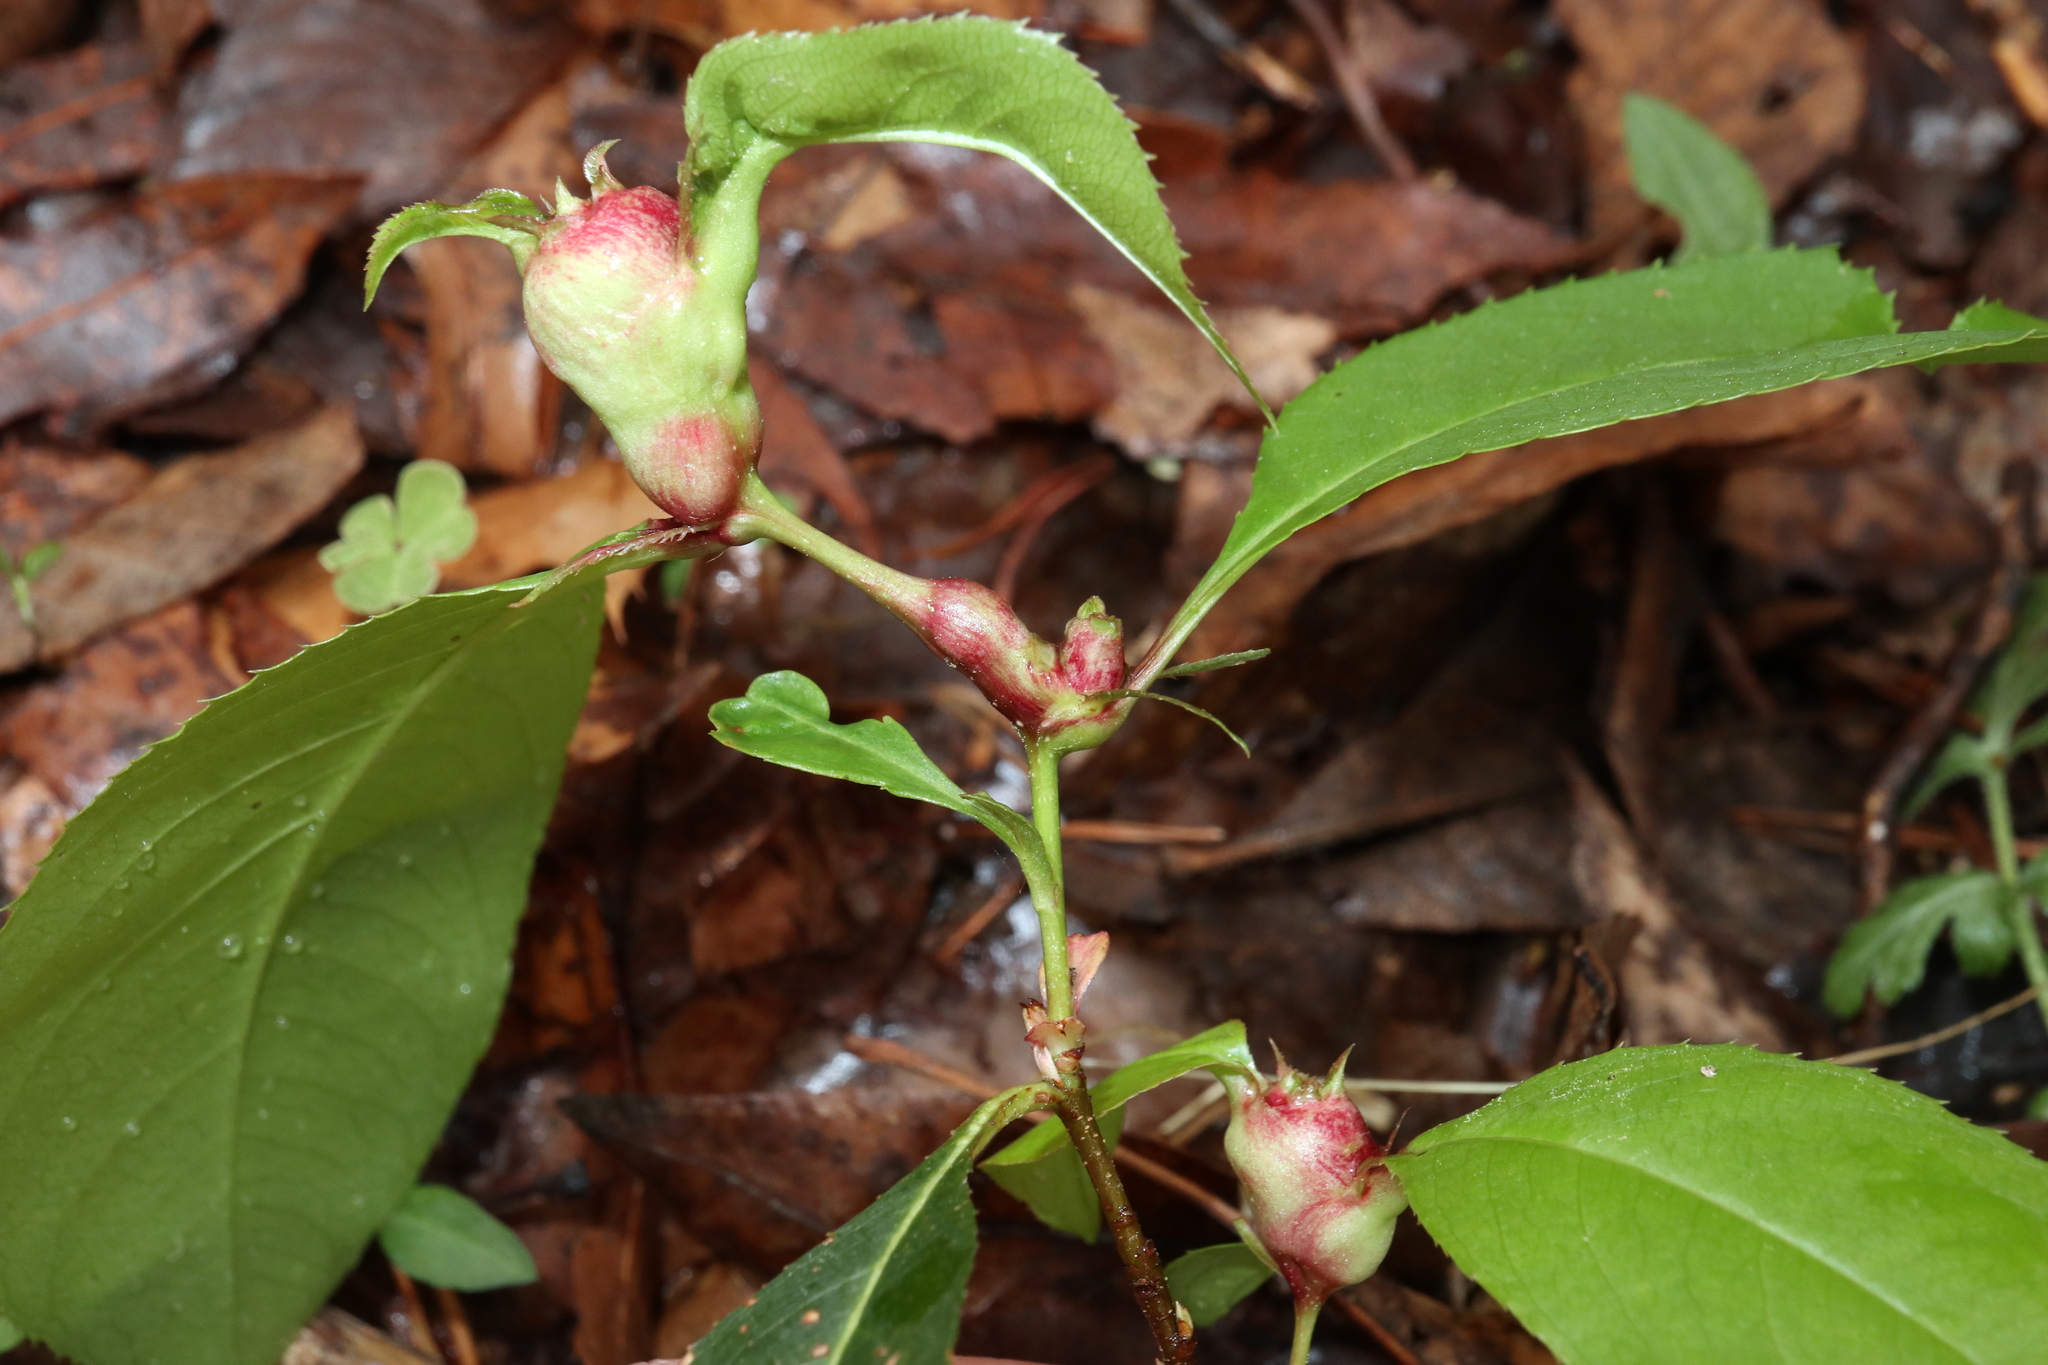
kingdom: Animalia
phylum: Arthropoda
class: Insecta
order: Diptera
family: Cecidomyiidae
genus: Contarinia
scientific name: Contarinia cerasiserotinae
